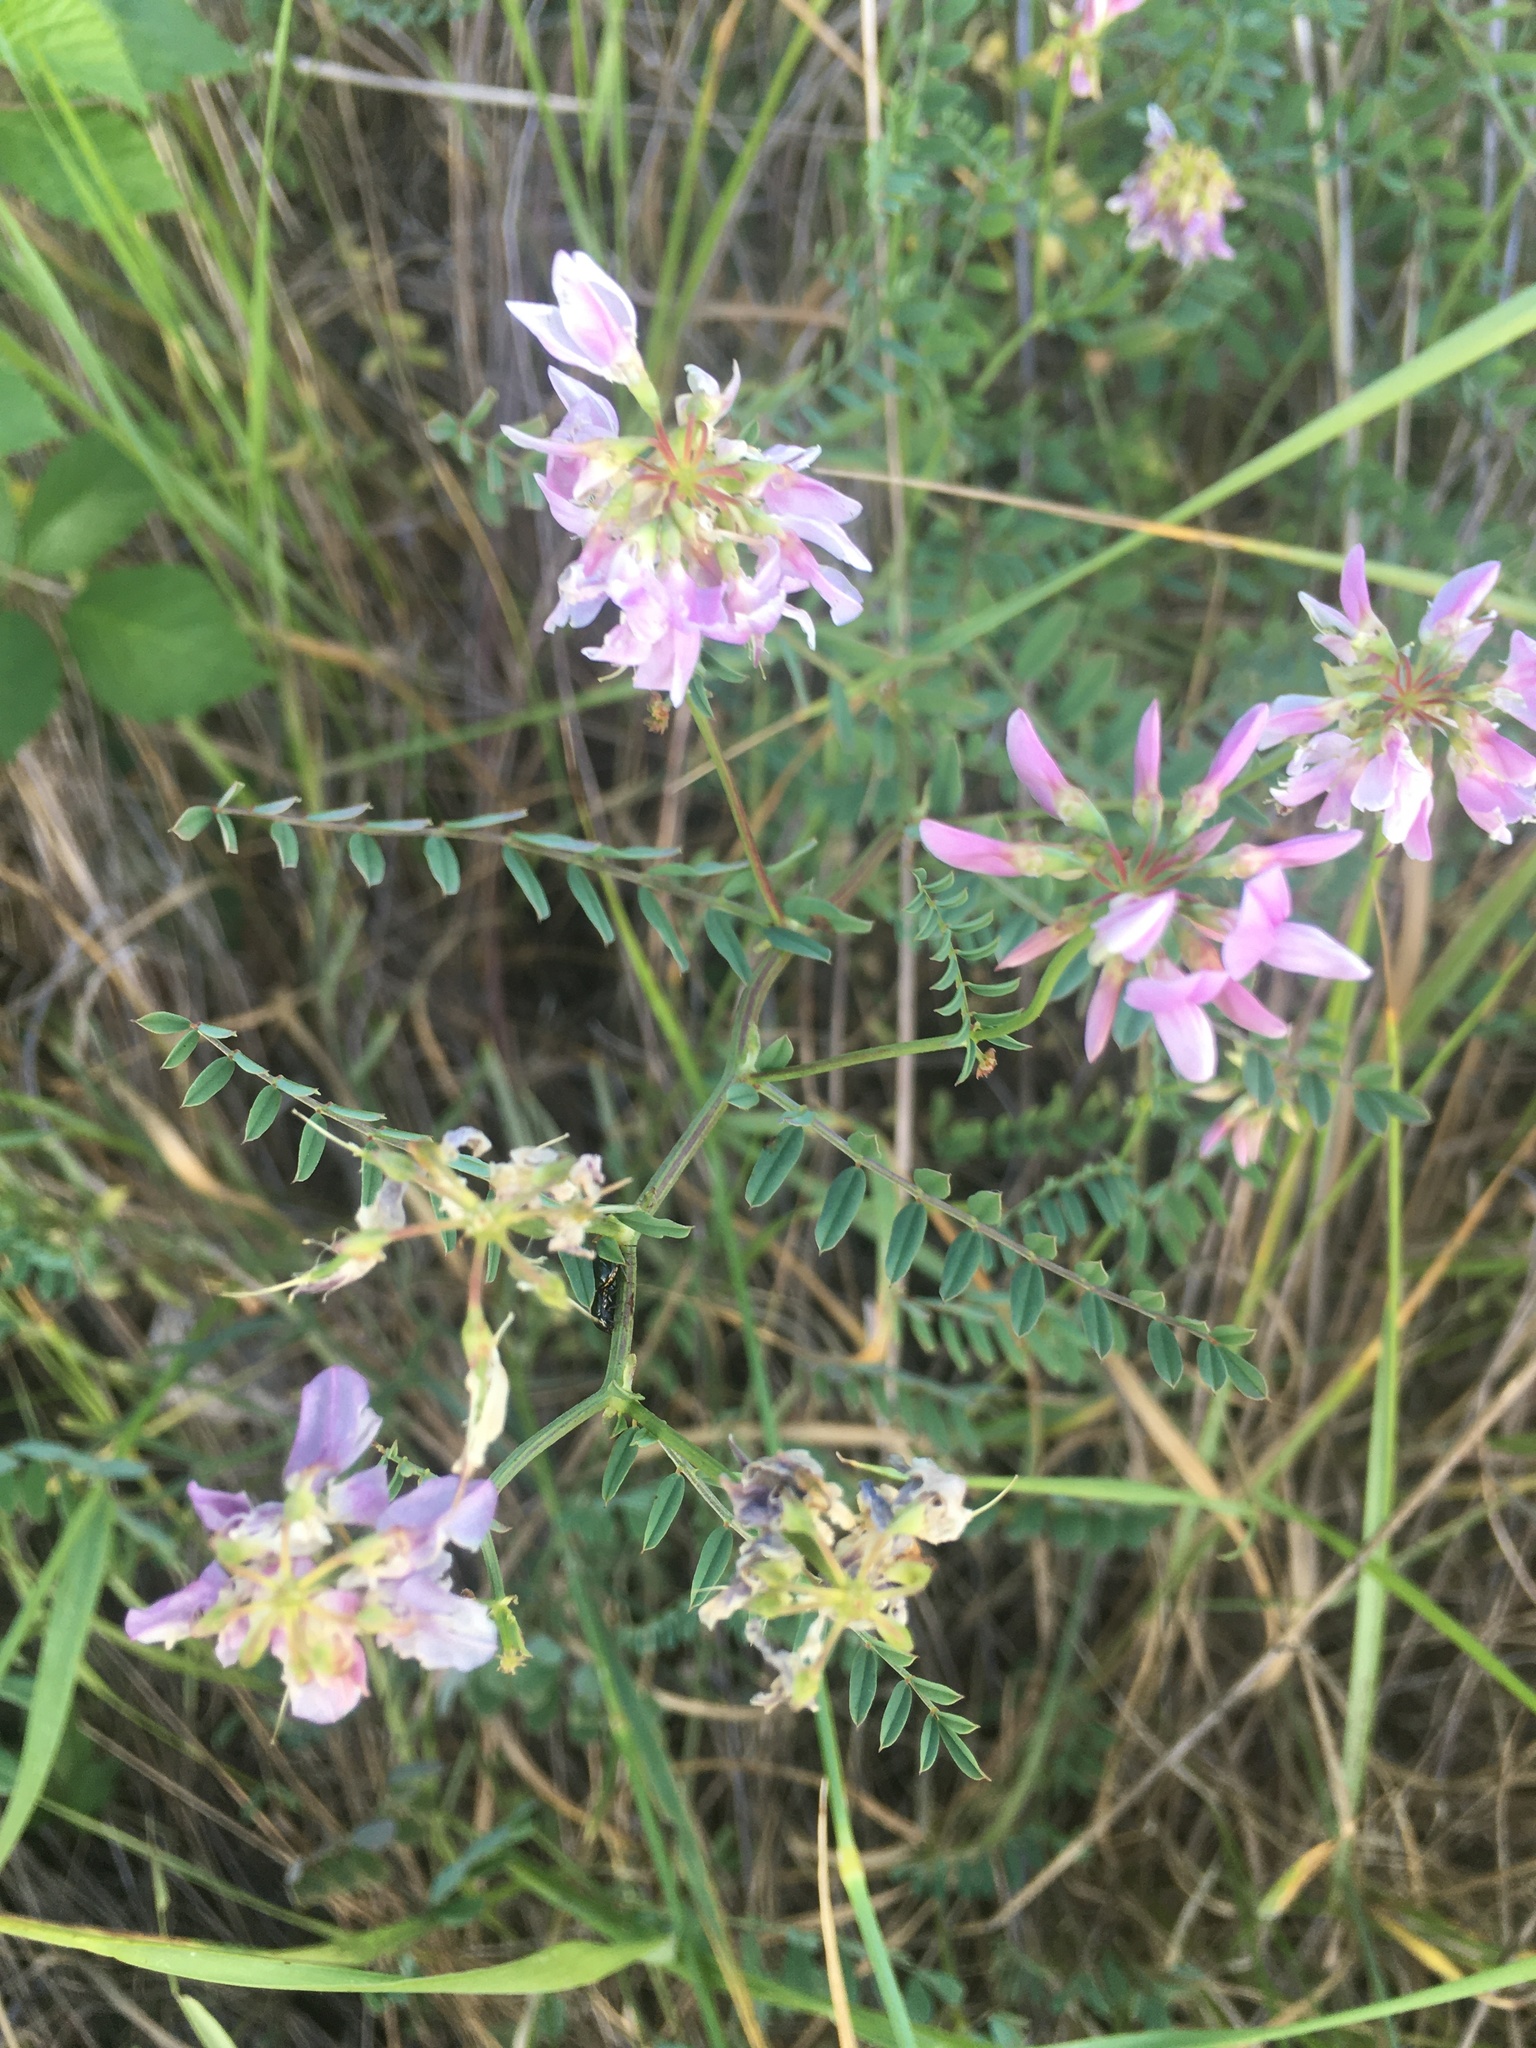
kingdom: Plantae
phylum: Tracheophyta
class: Magnoliopsida
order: Fabales
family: Fabaceae
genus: Coronilla
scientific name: Coronilla varia
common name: Crownvetch
